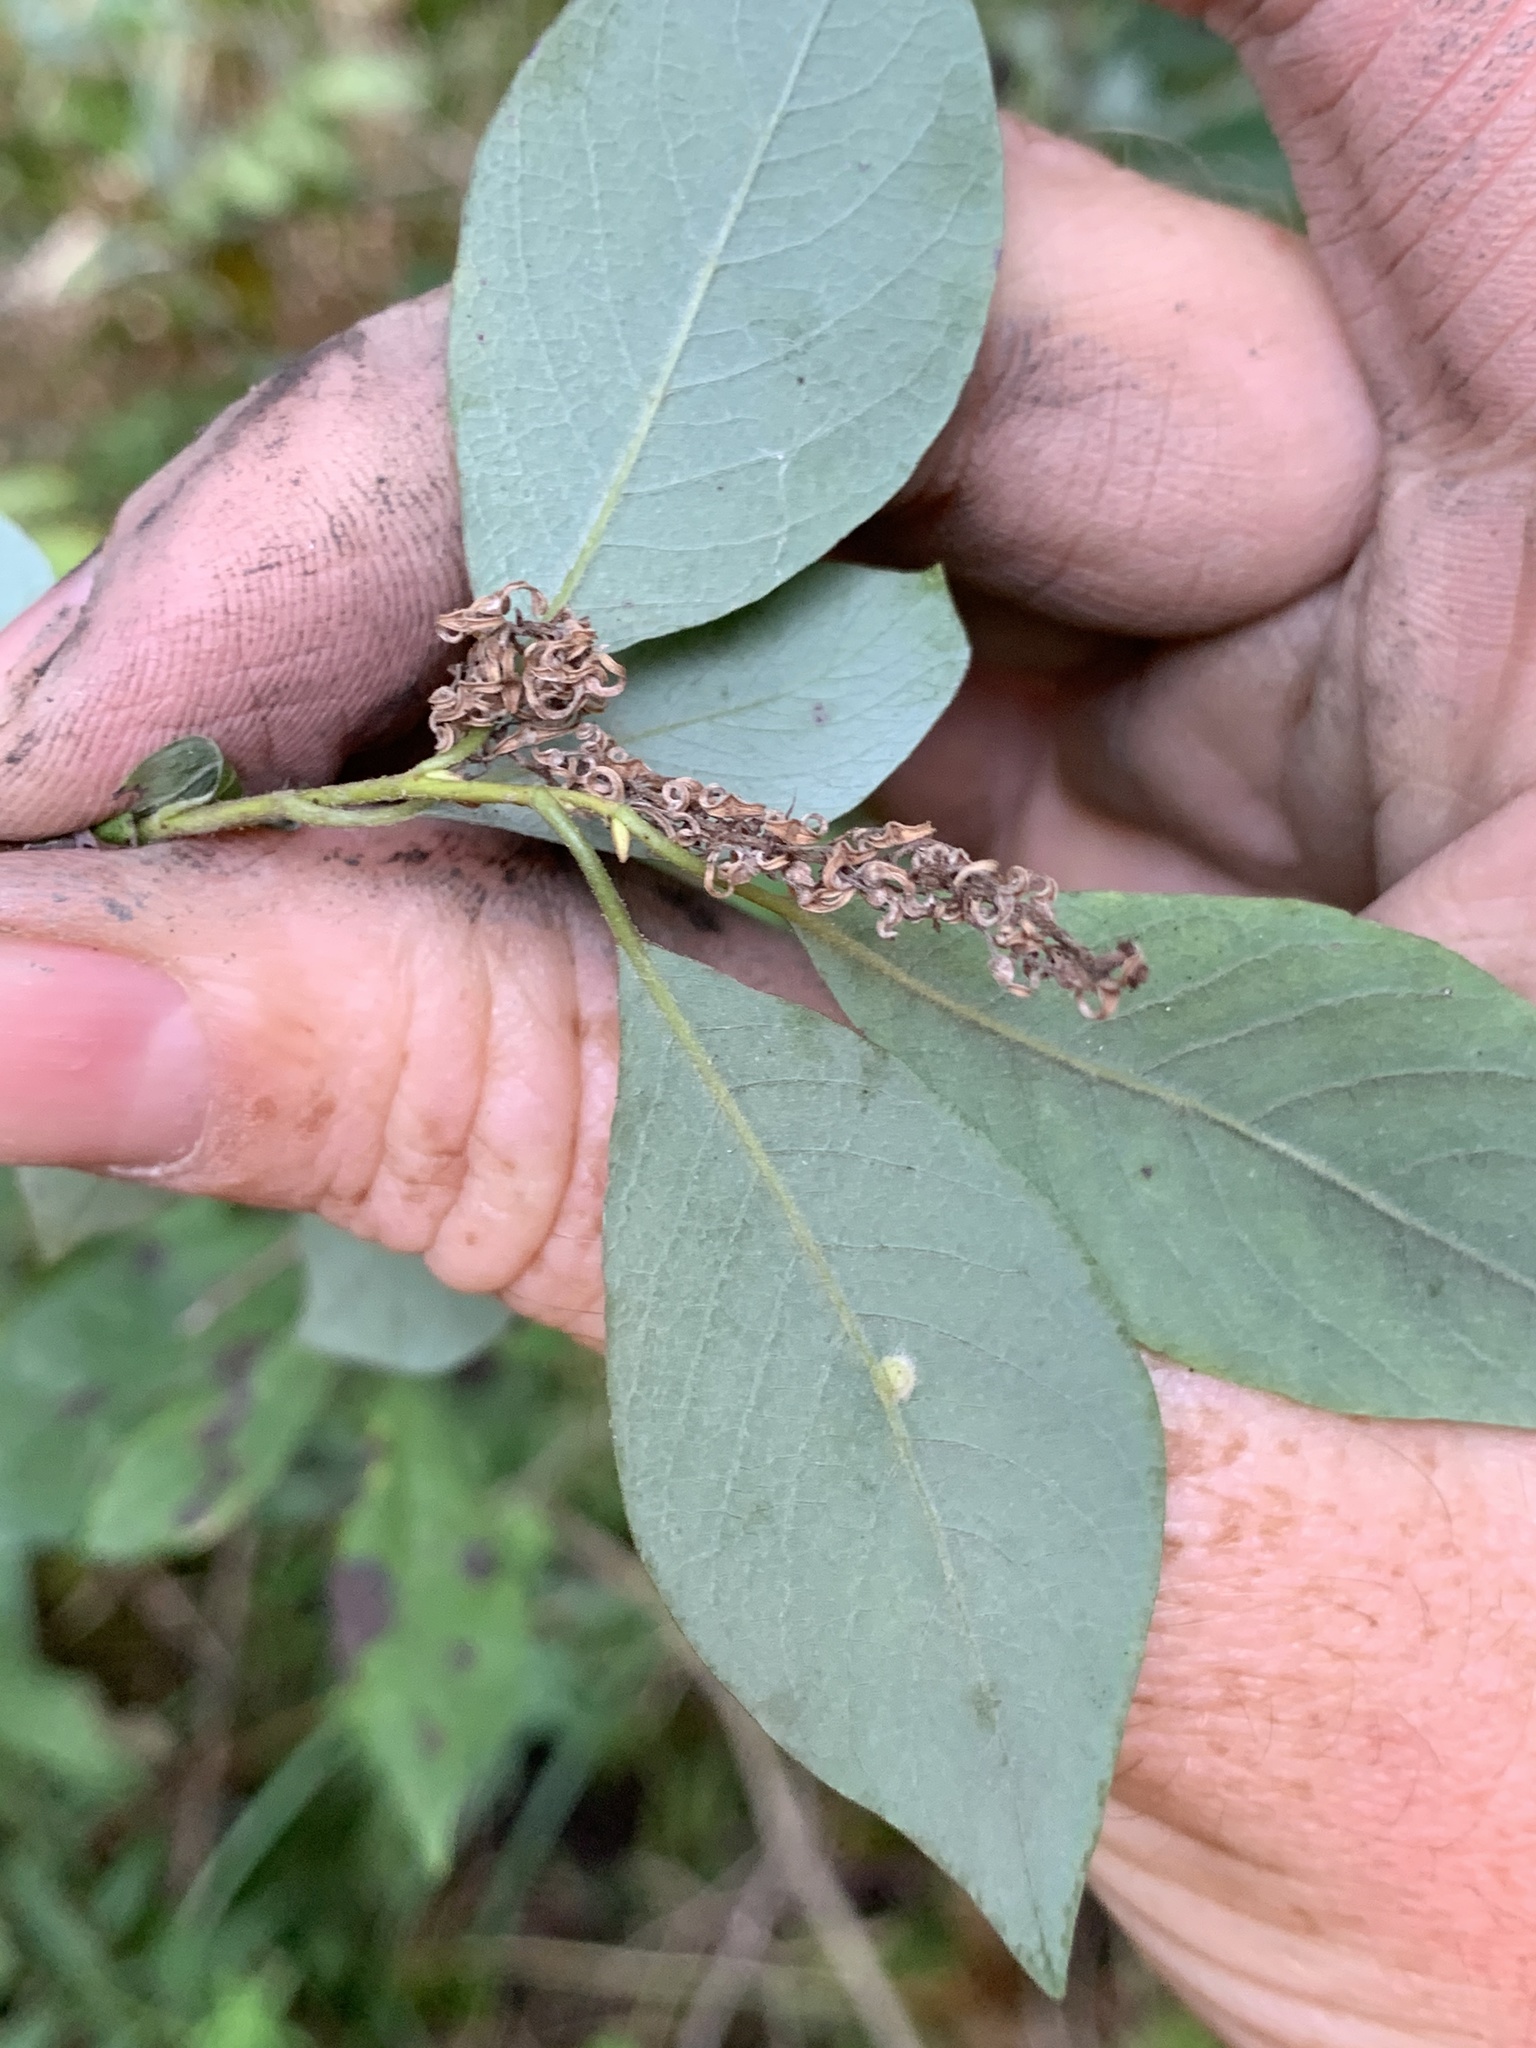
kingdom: Plantae
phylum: Tracheophyta
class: Magnoliopsida
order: Malpighiales
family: Salicaceae
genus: Salix
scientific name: Salix bebbiana
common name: Bebb's willow
